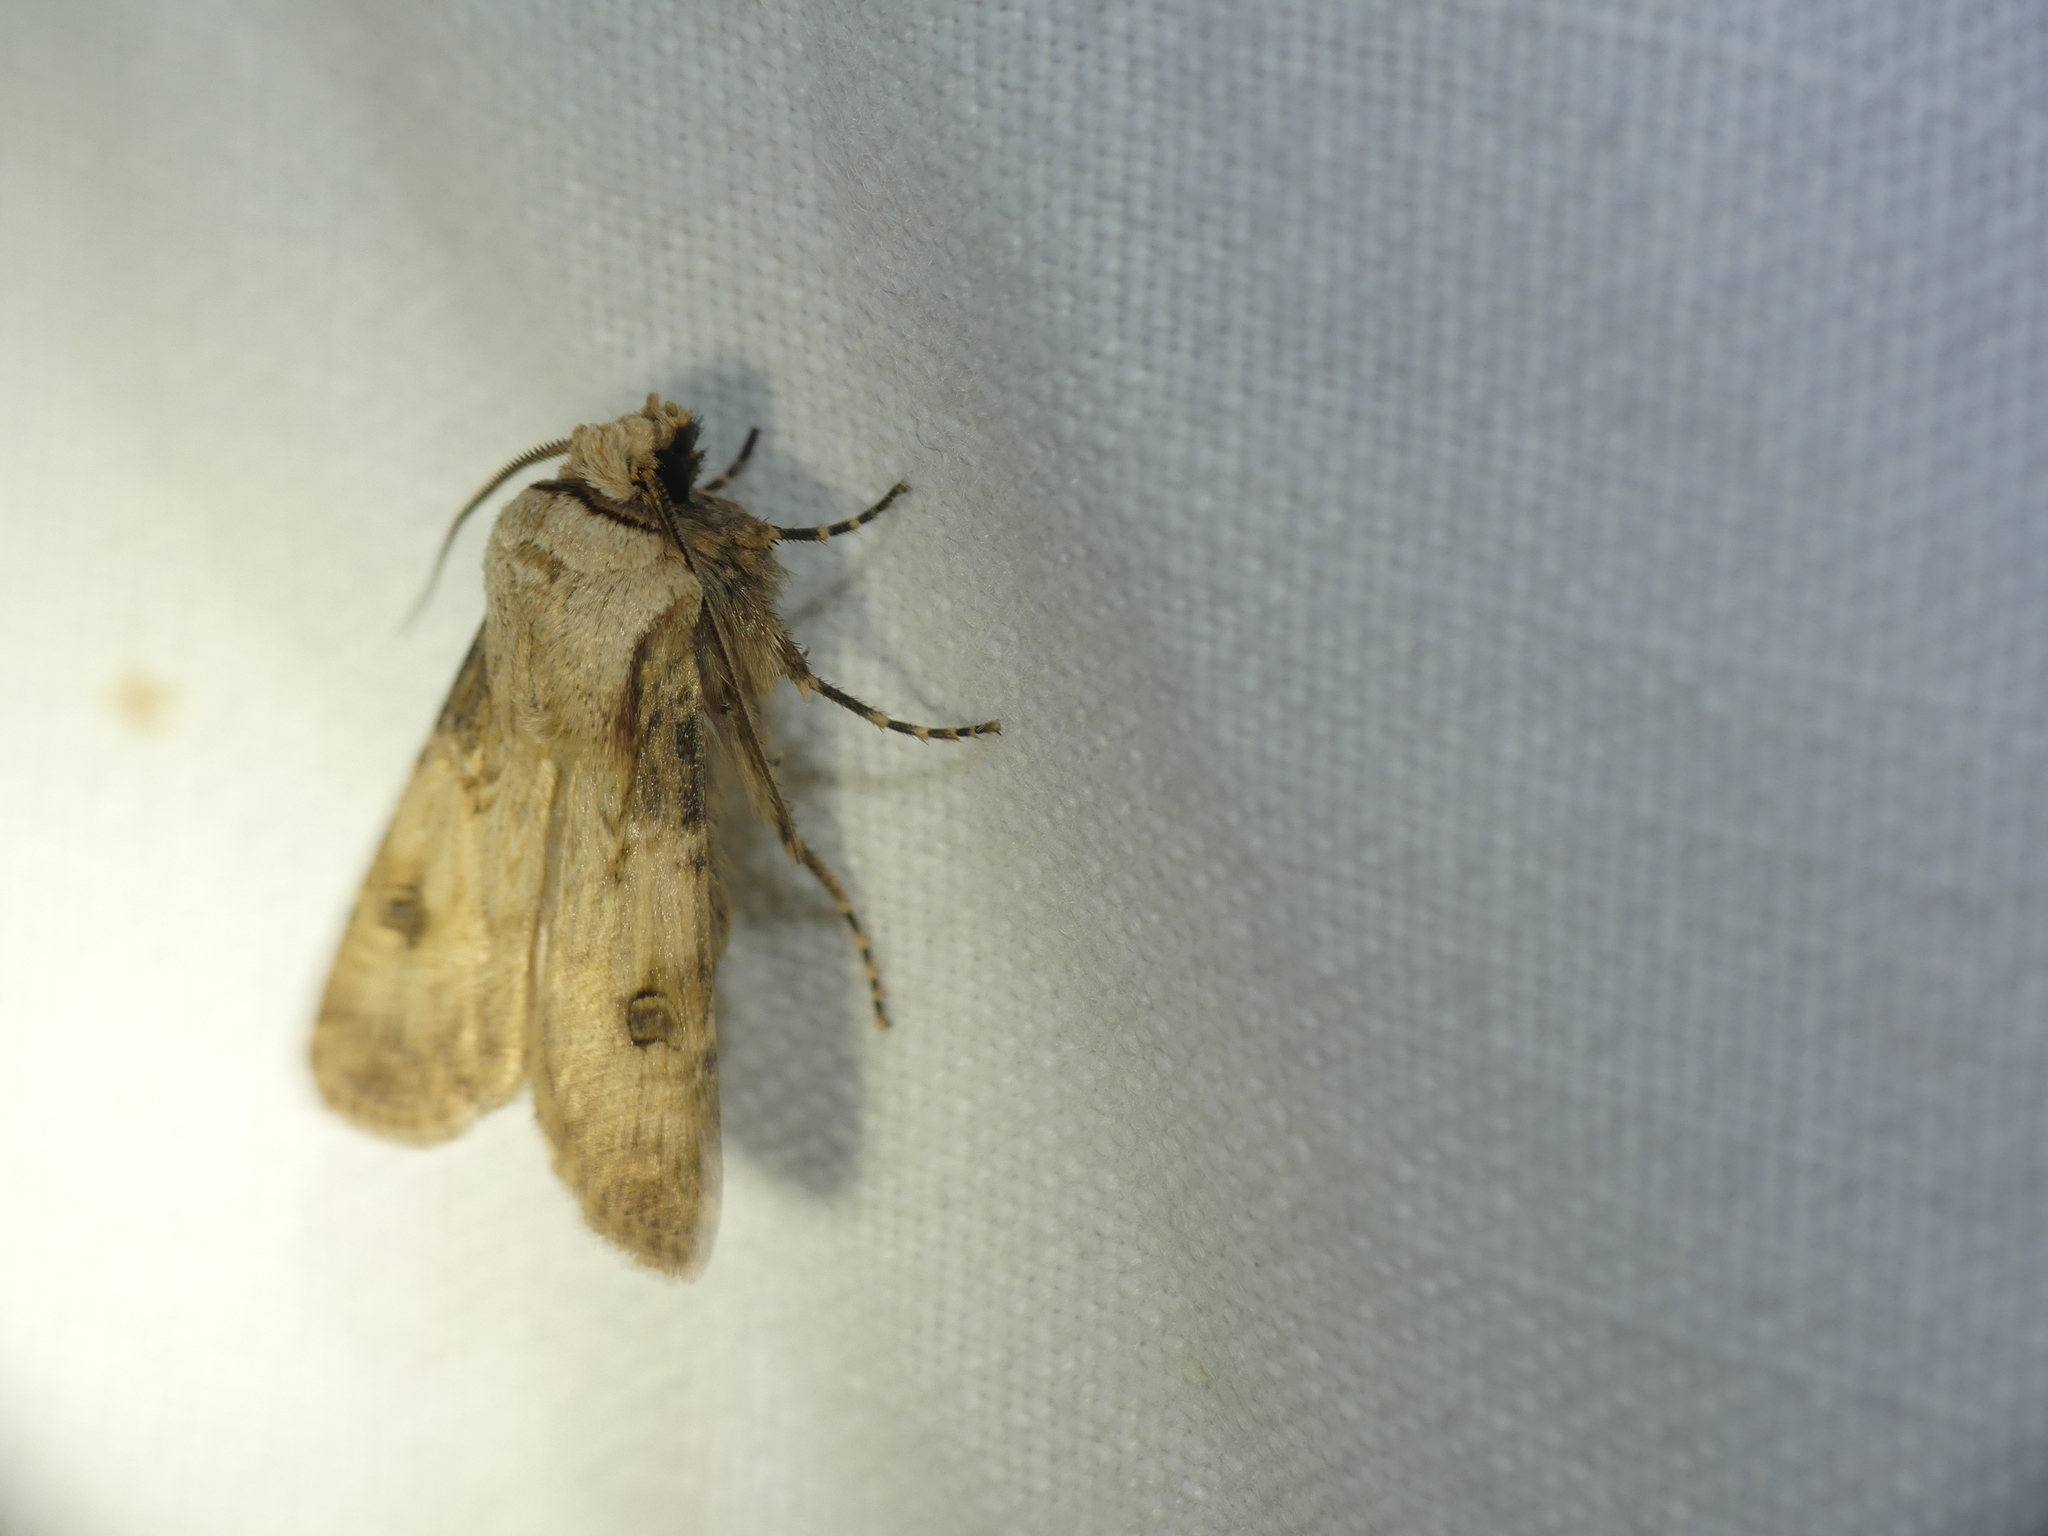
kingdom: Animalia
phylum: Arthropoda
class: Insecta
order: Lepidoptera
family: Noctuidae
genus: Agrotis
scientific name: Agrotis puta
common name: Shuttle-shaped dart
